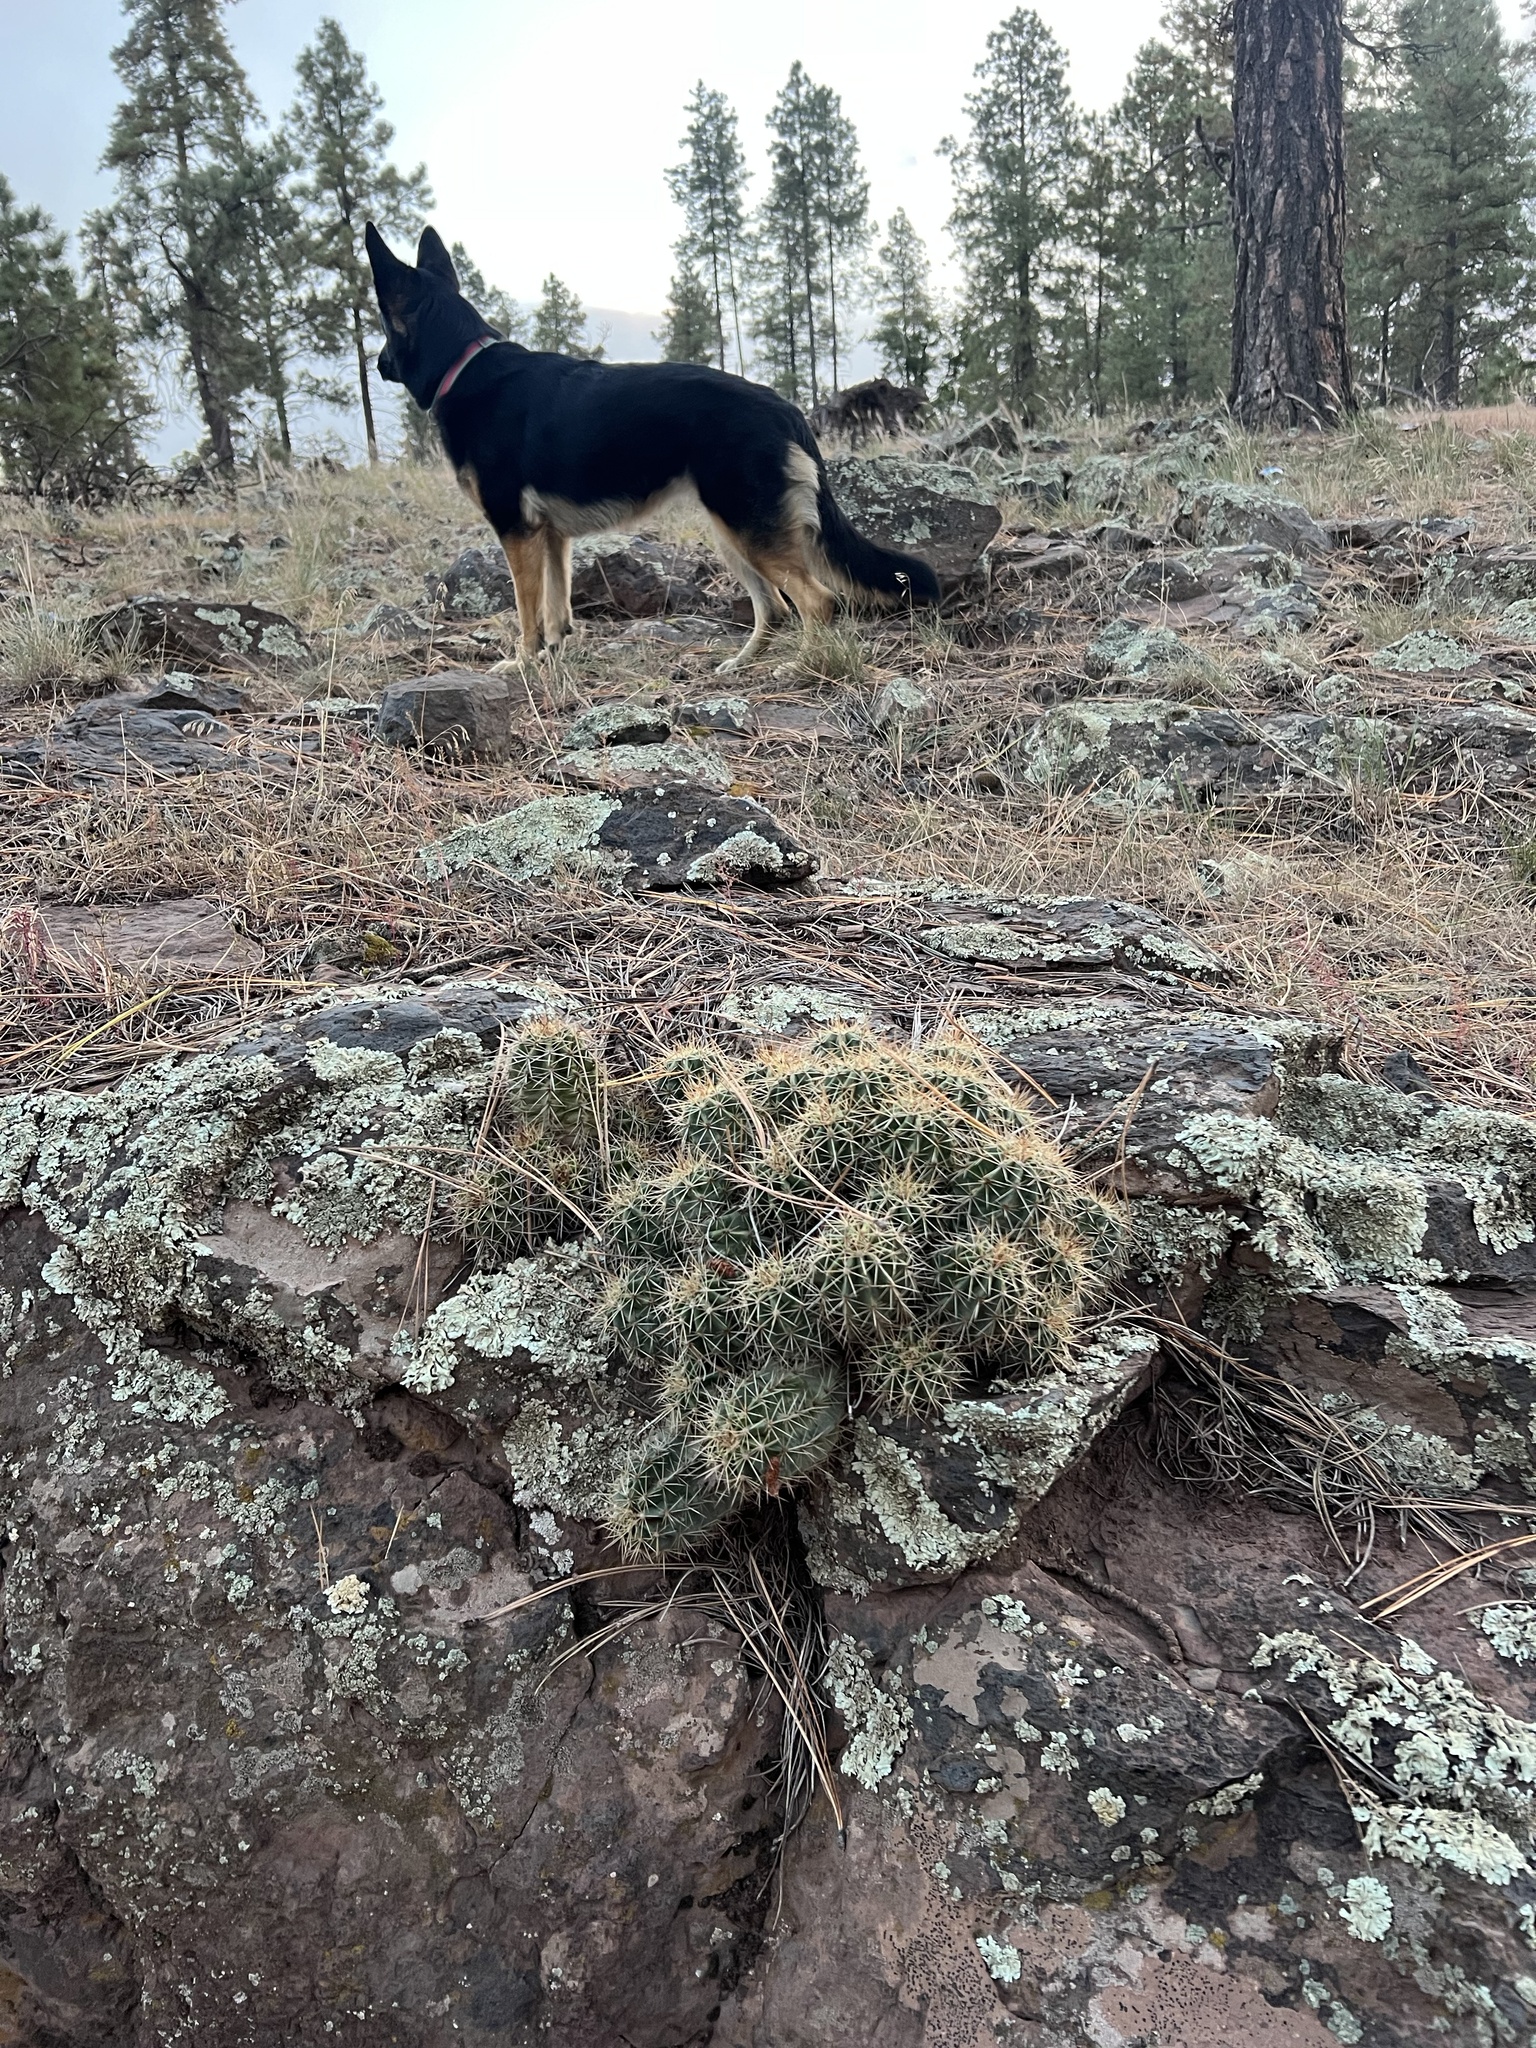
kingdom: Plantae
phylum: Tracheophyta
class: Magnoliopsida
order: Caryophyllales
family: Cactaceae
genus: Echinocereus
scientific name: Echinocereus bakeri
